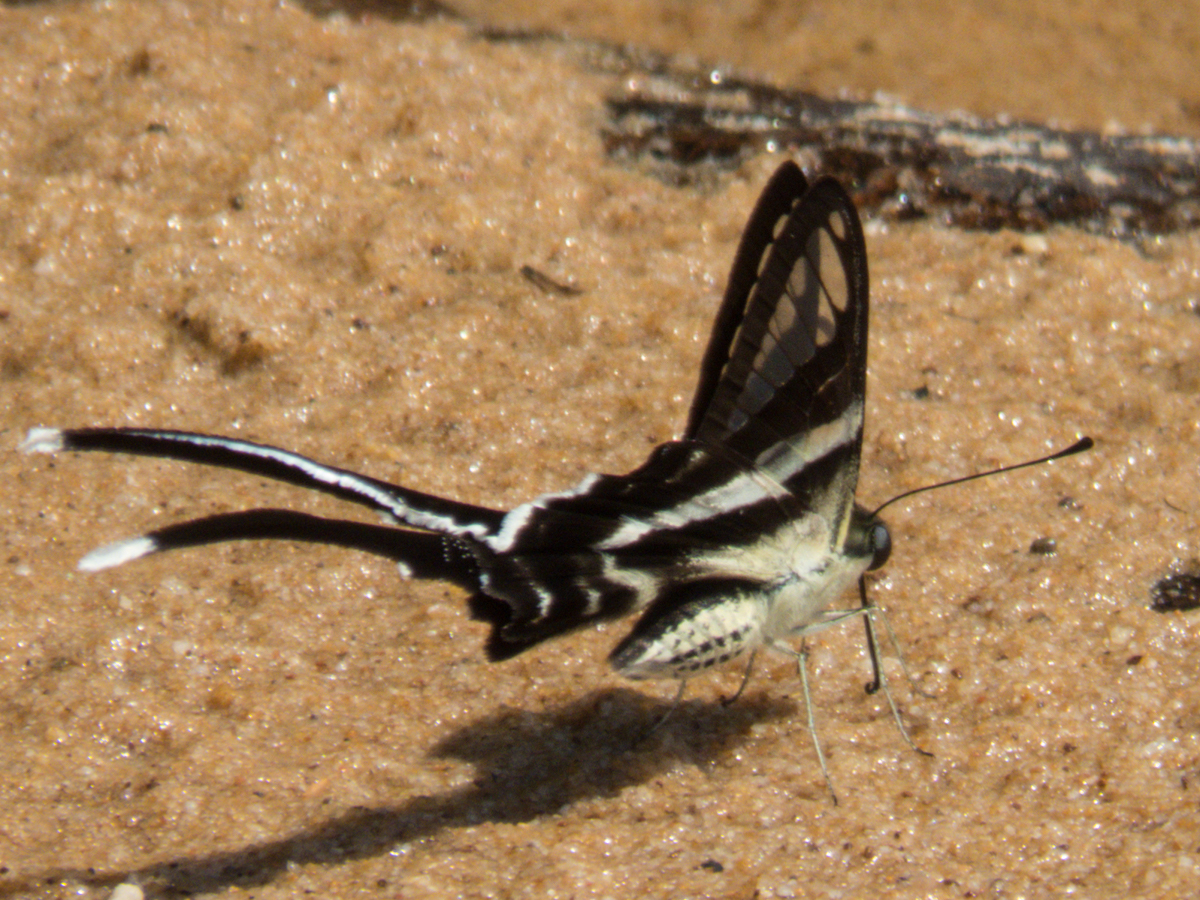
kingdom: Animalia
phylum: Arthropoda
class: Insecta
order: Lepidoptera
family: Papilionidae
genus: Lamproptera
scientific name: Lamproptera curius
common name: White dragontail
